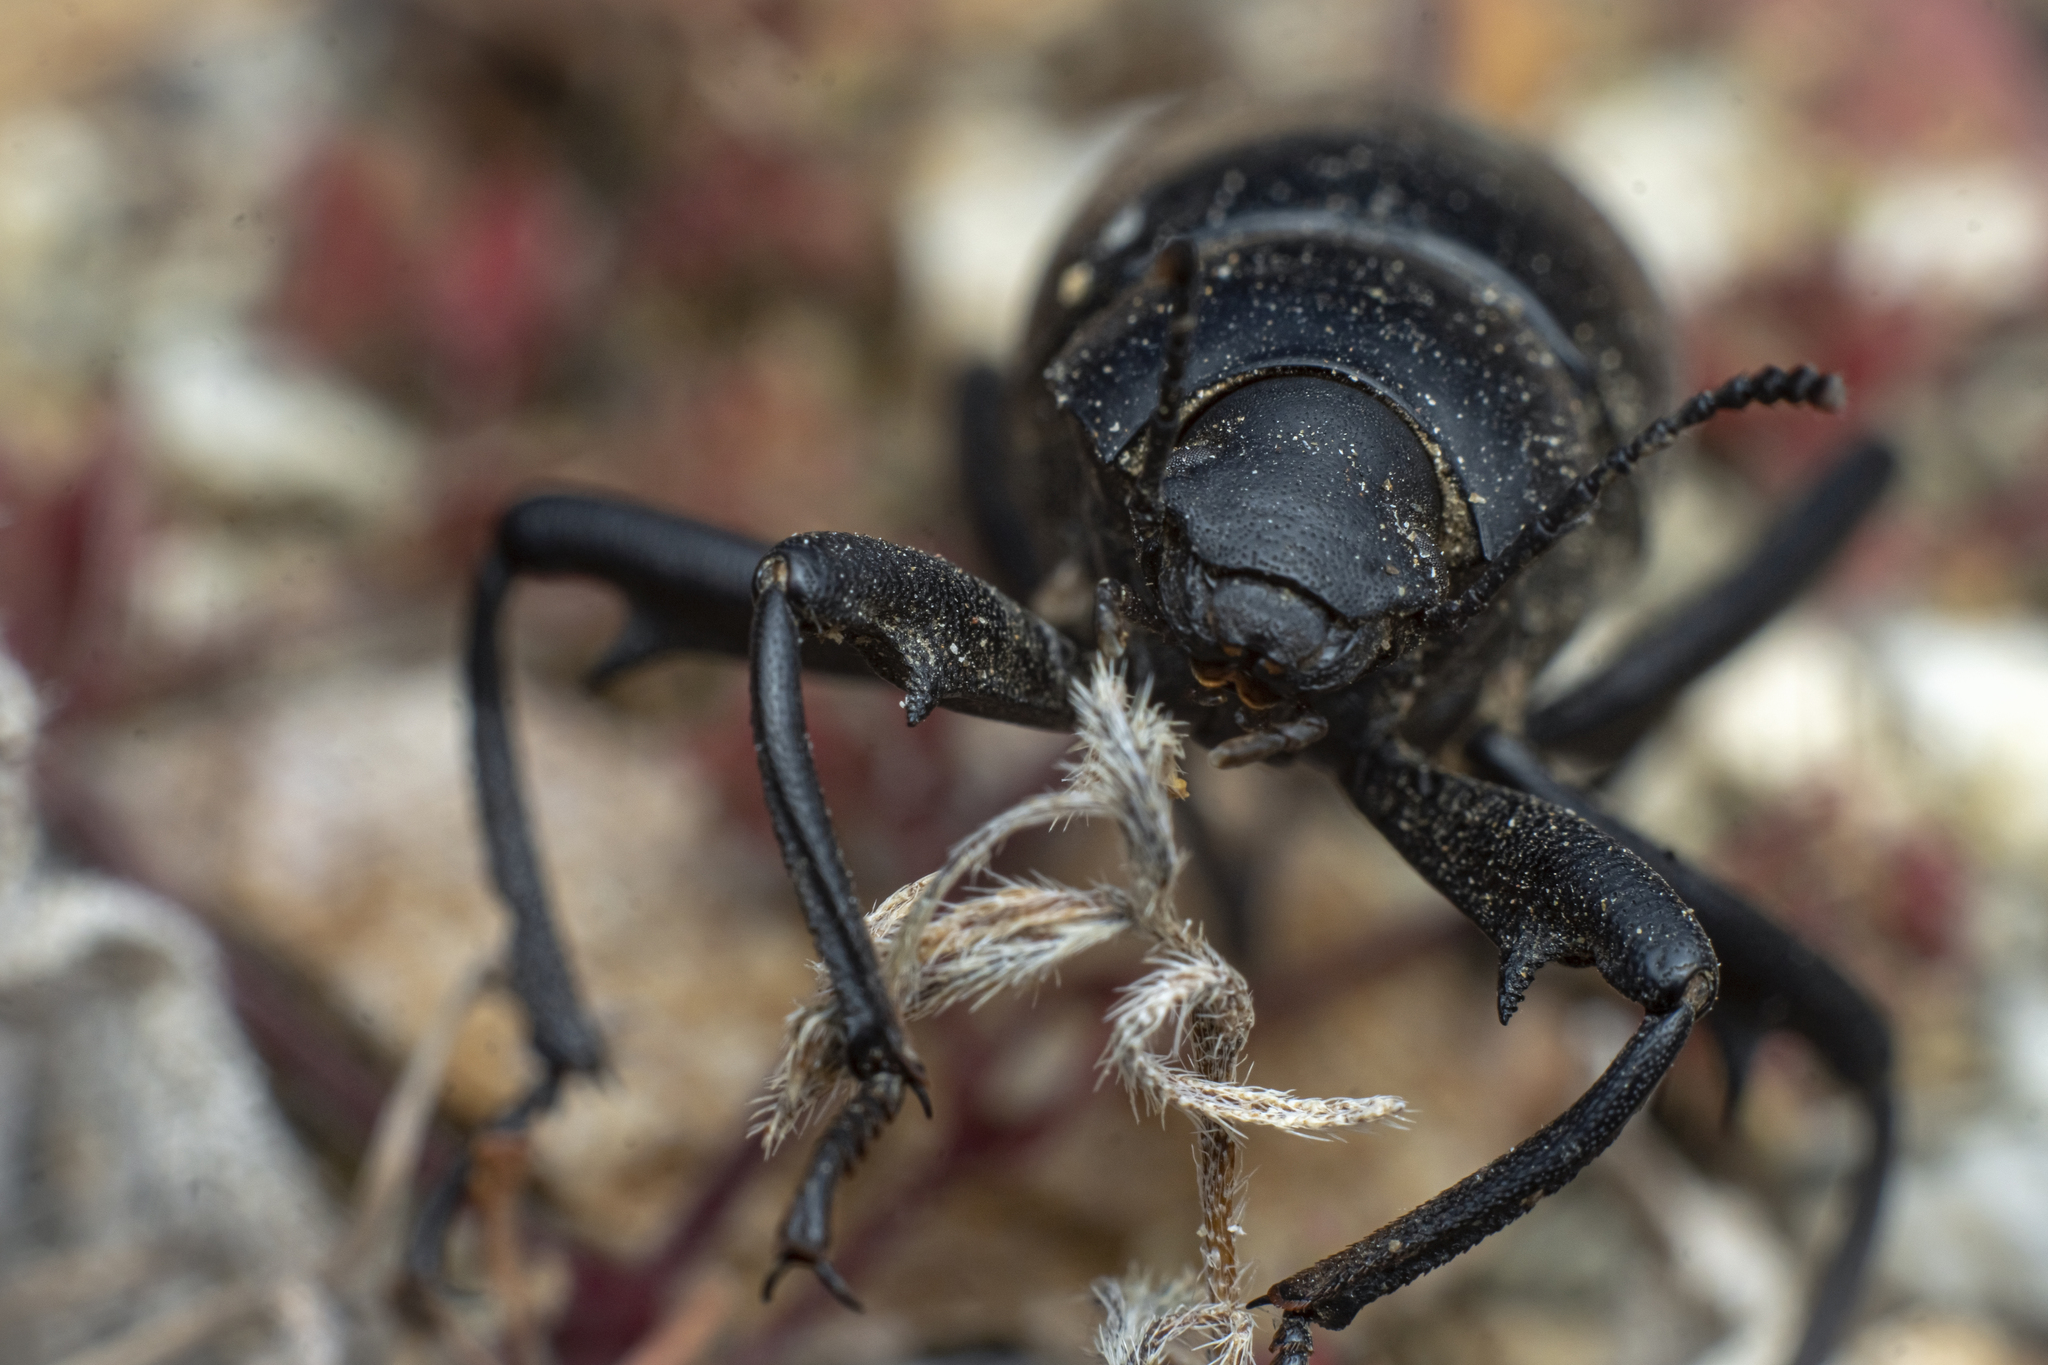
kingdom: Animalia
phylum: Arthropoda
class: Insecta
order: Coleoptera
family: Tenebrionidae
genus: Eleodes
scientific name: Eleodes armata
